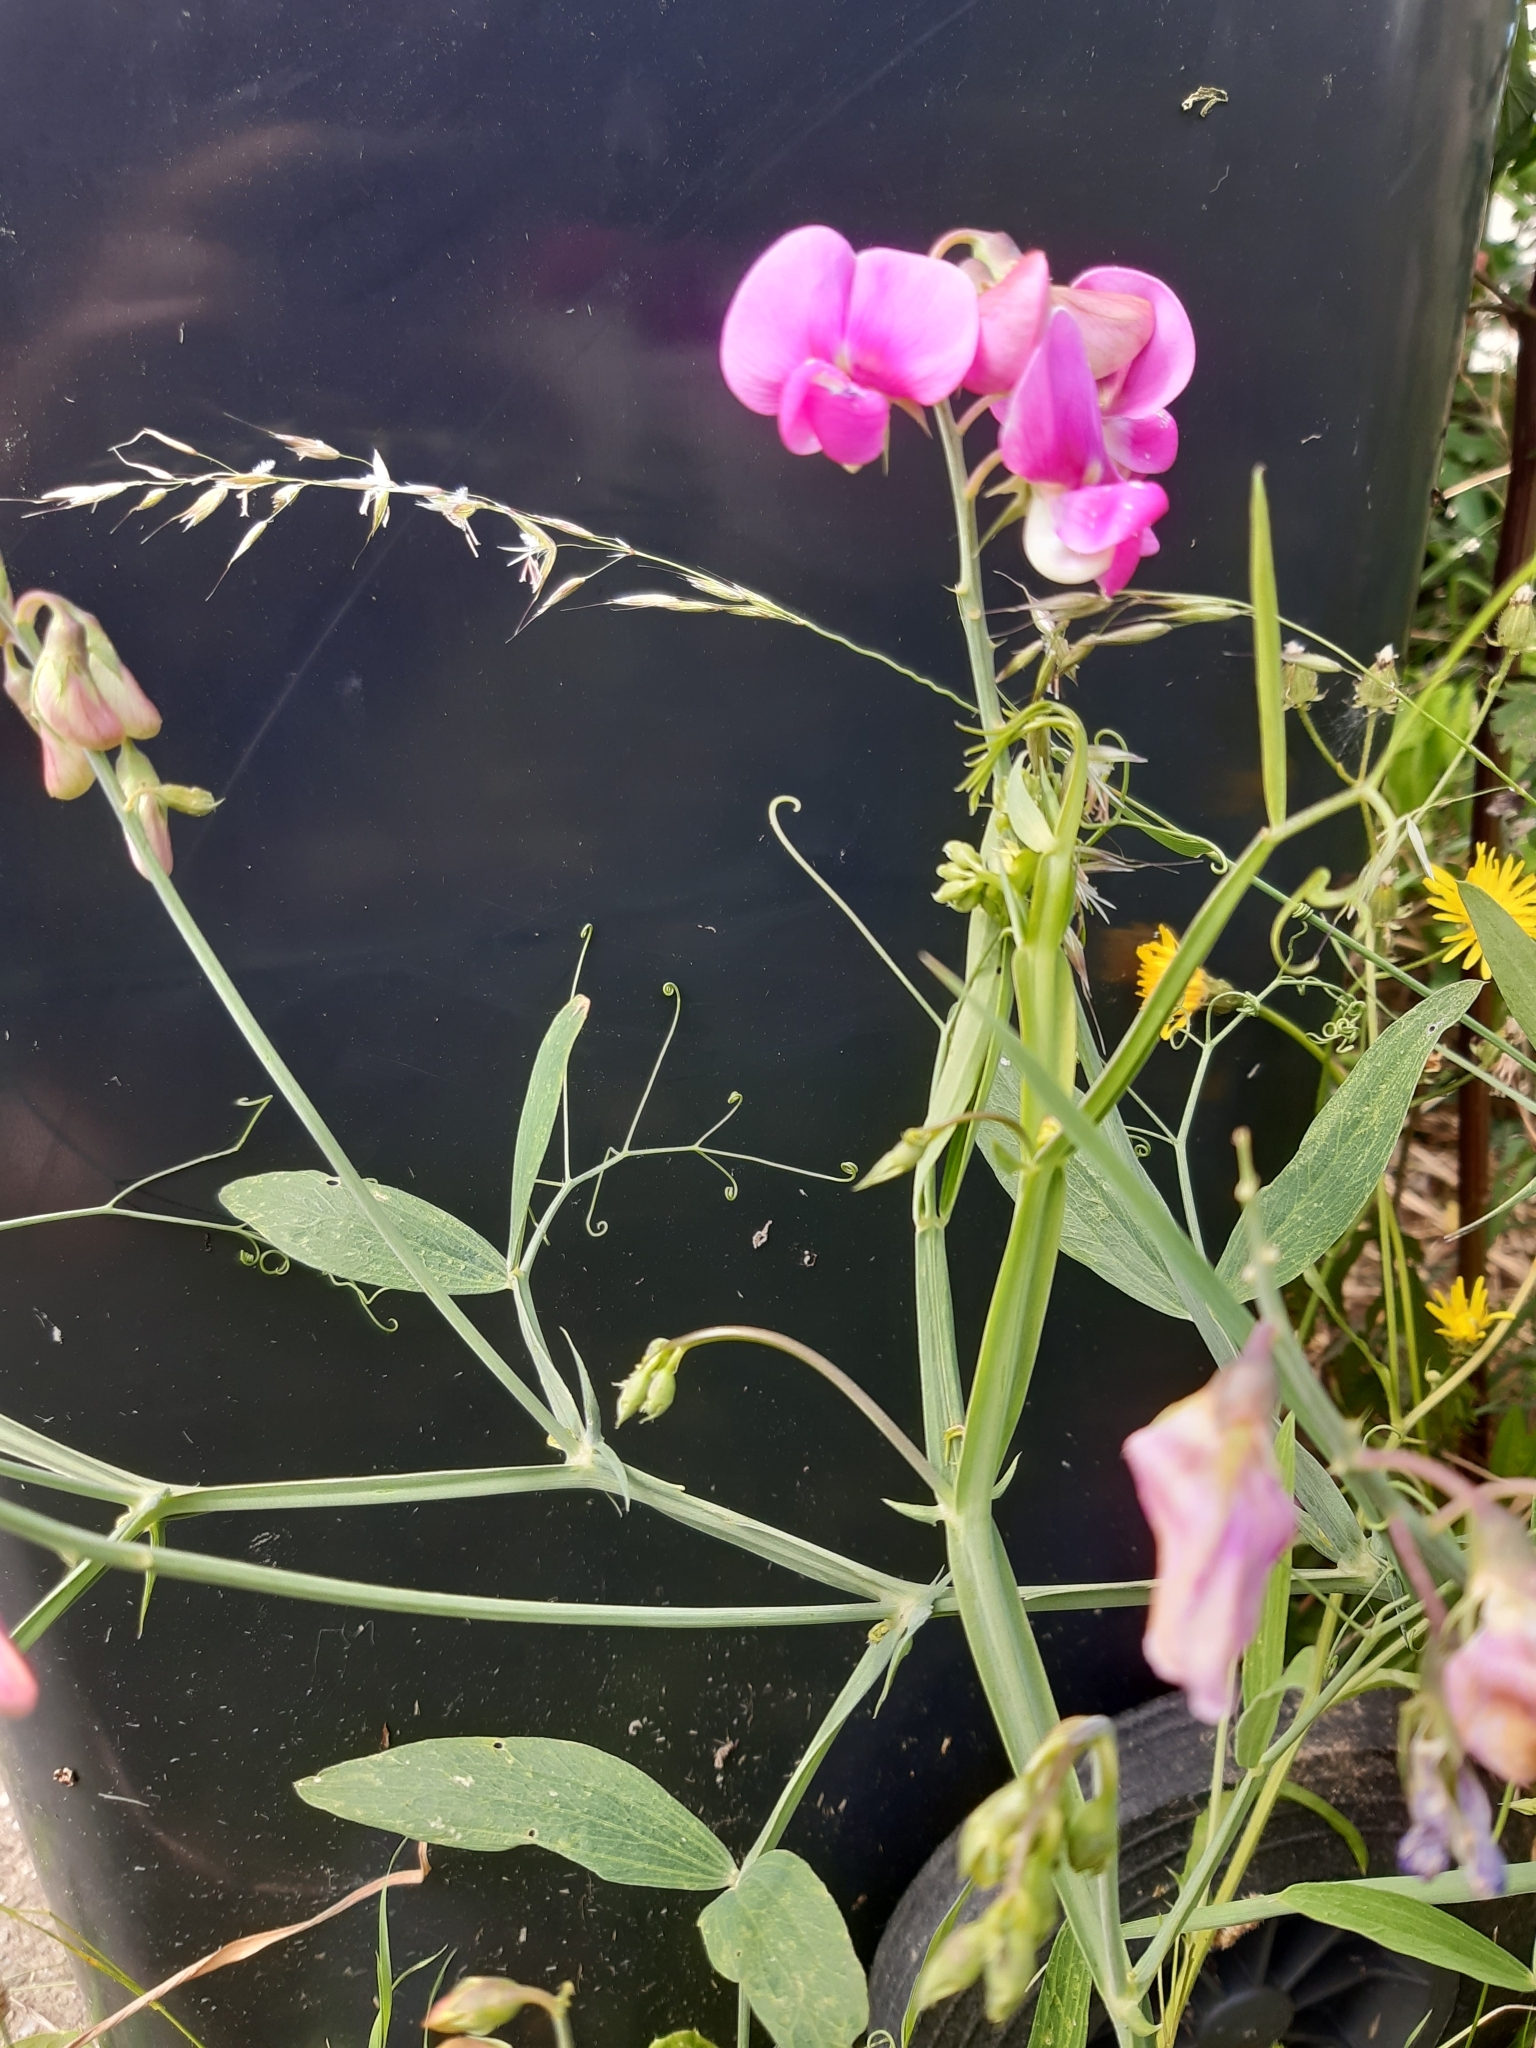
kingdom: Plantae
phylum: Tracheophyta
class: Magnoliopsida
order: Fabales
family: Fabaceae
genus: Lathyrus
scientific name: Lathyrus latifolius
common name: Perennial pea
